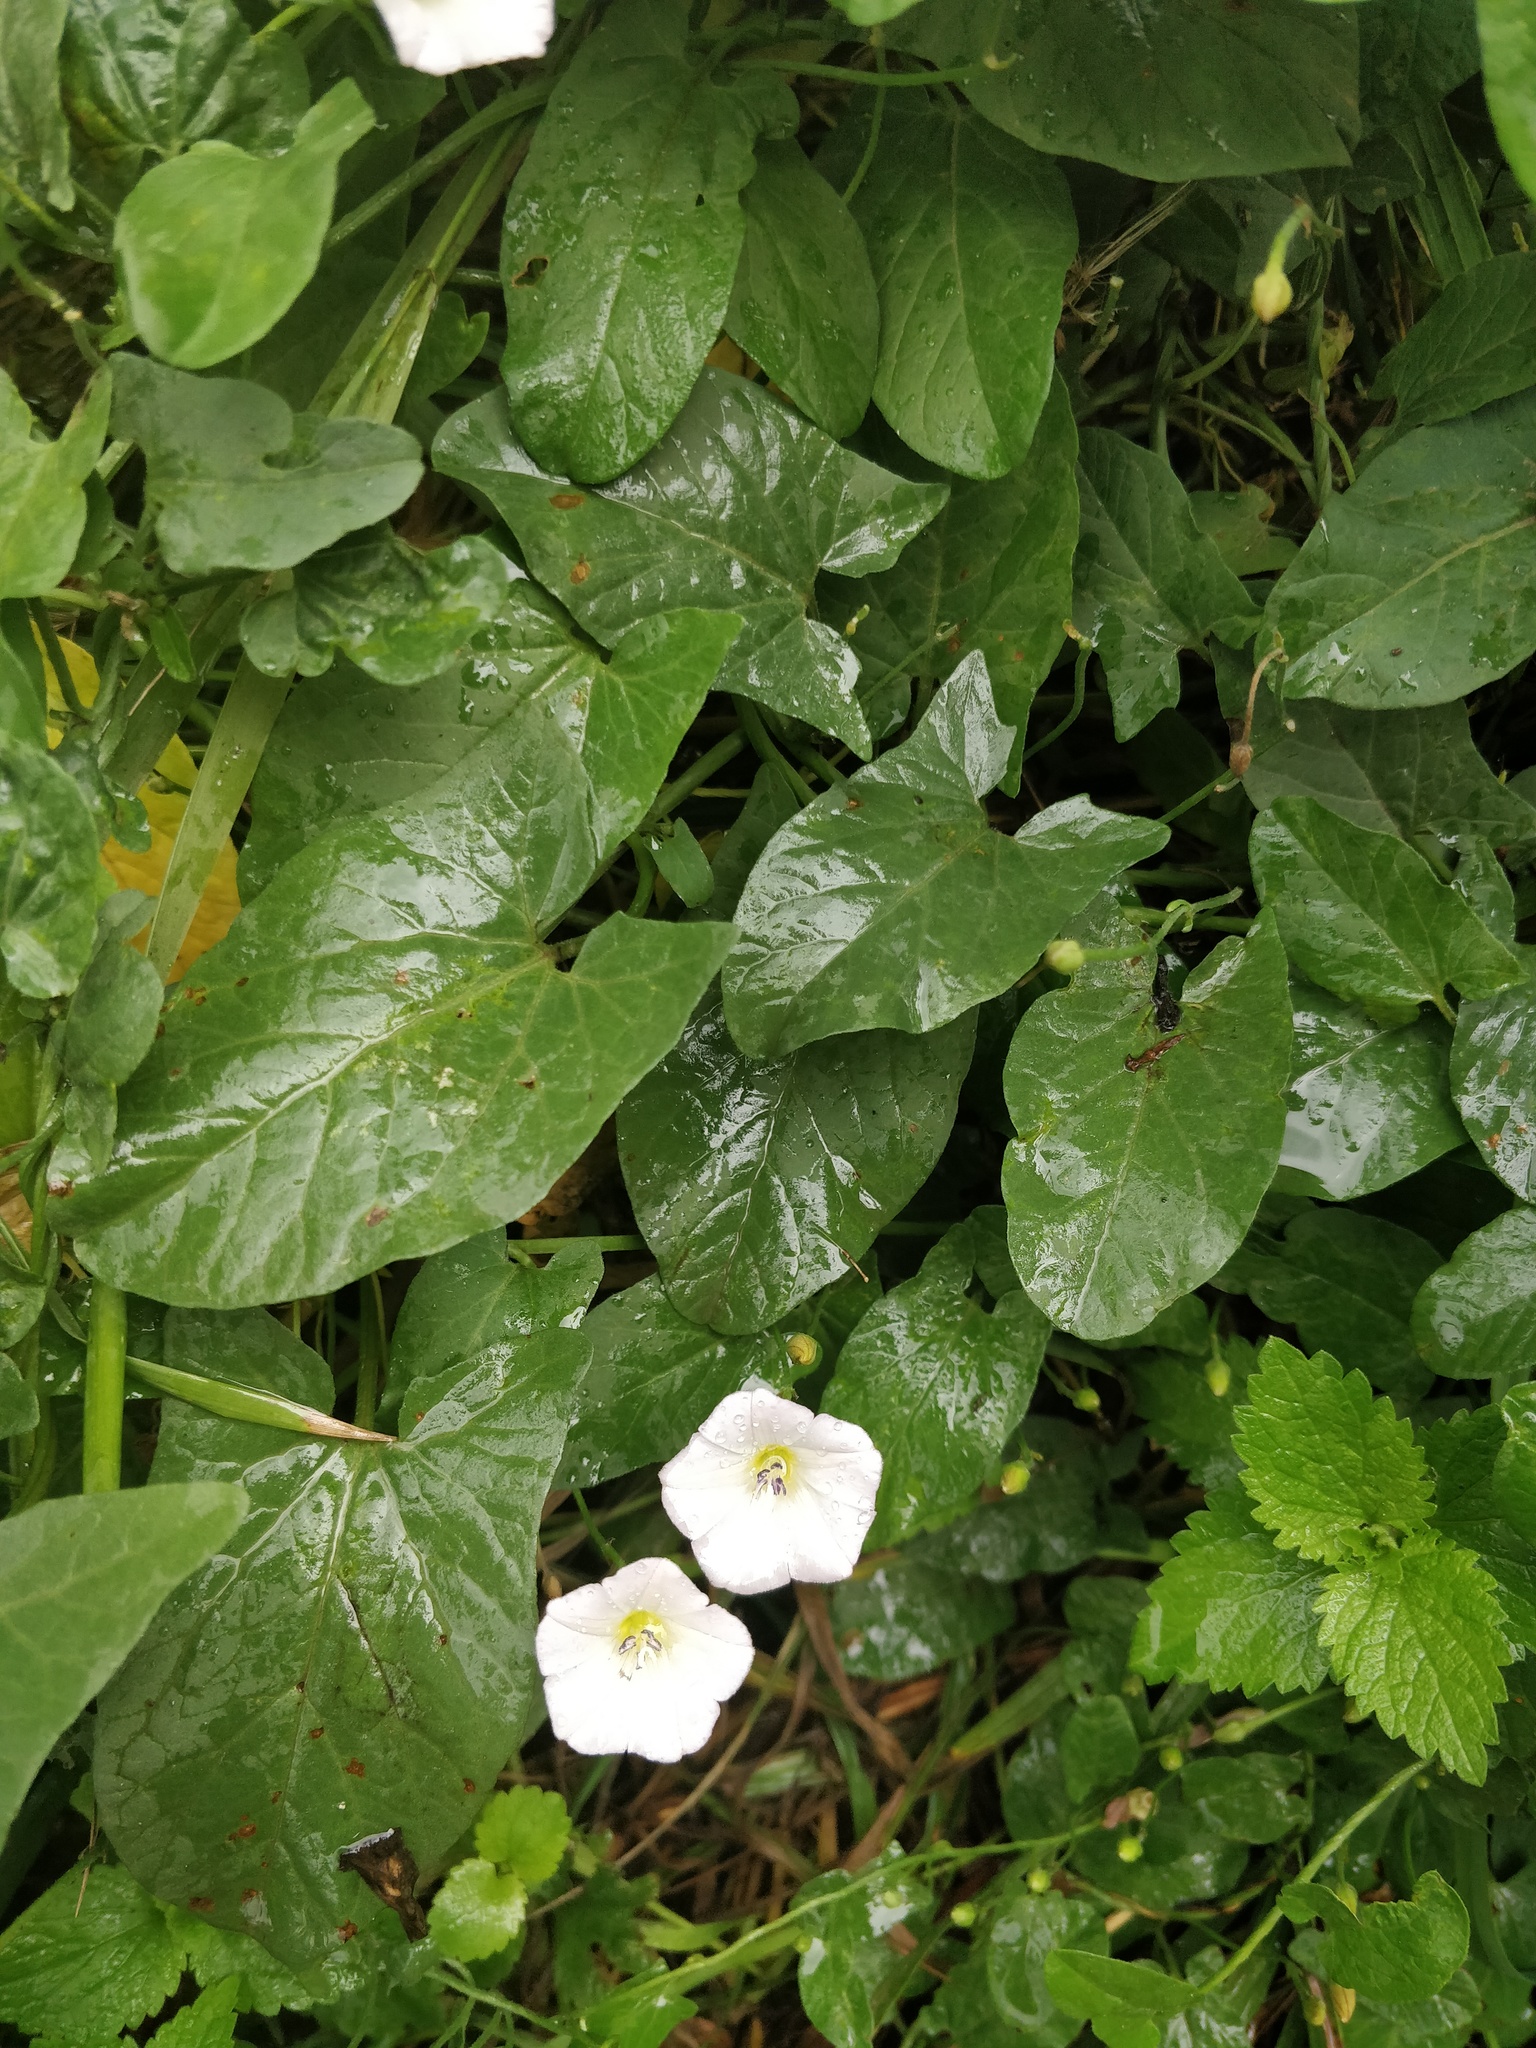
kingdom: Plantae
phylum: Tracheophyta
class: Magnoliopsida
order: Solanales
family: Convolvulaceae
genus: Convolvulus
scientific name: Convolvulus arvensis
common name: Field bindweed
